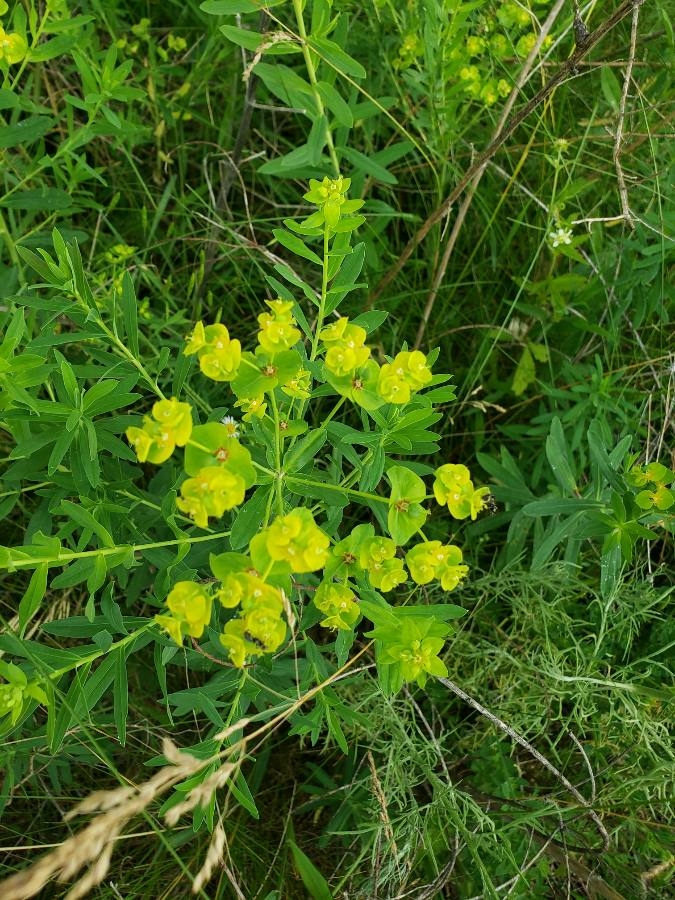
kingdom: Plantae
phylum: Tracheophyta
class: Magnoliopsida
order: Malpighiales
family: Euphorbiaceae
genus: Euphorbia
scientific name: Euphorbia virgata
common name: Leafy spurge
